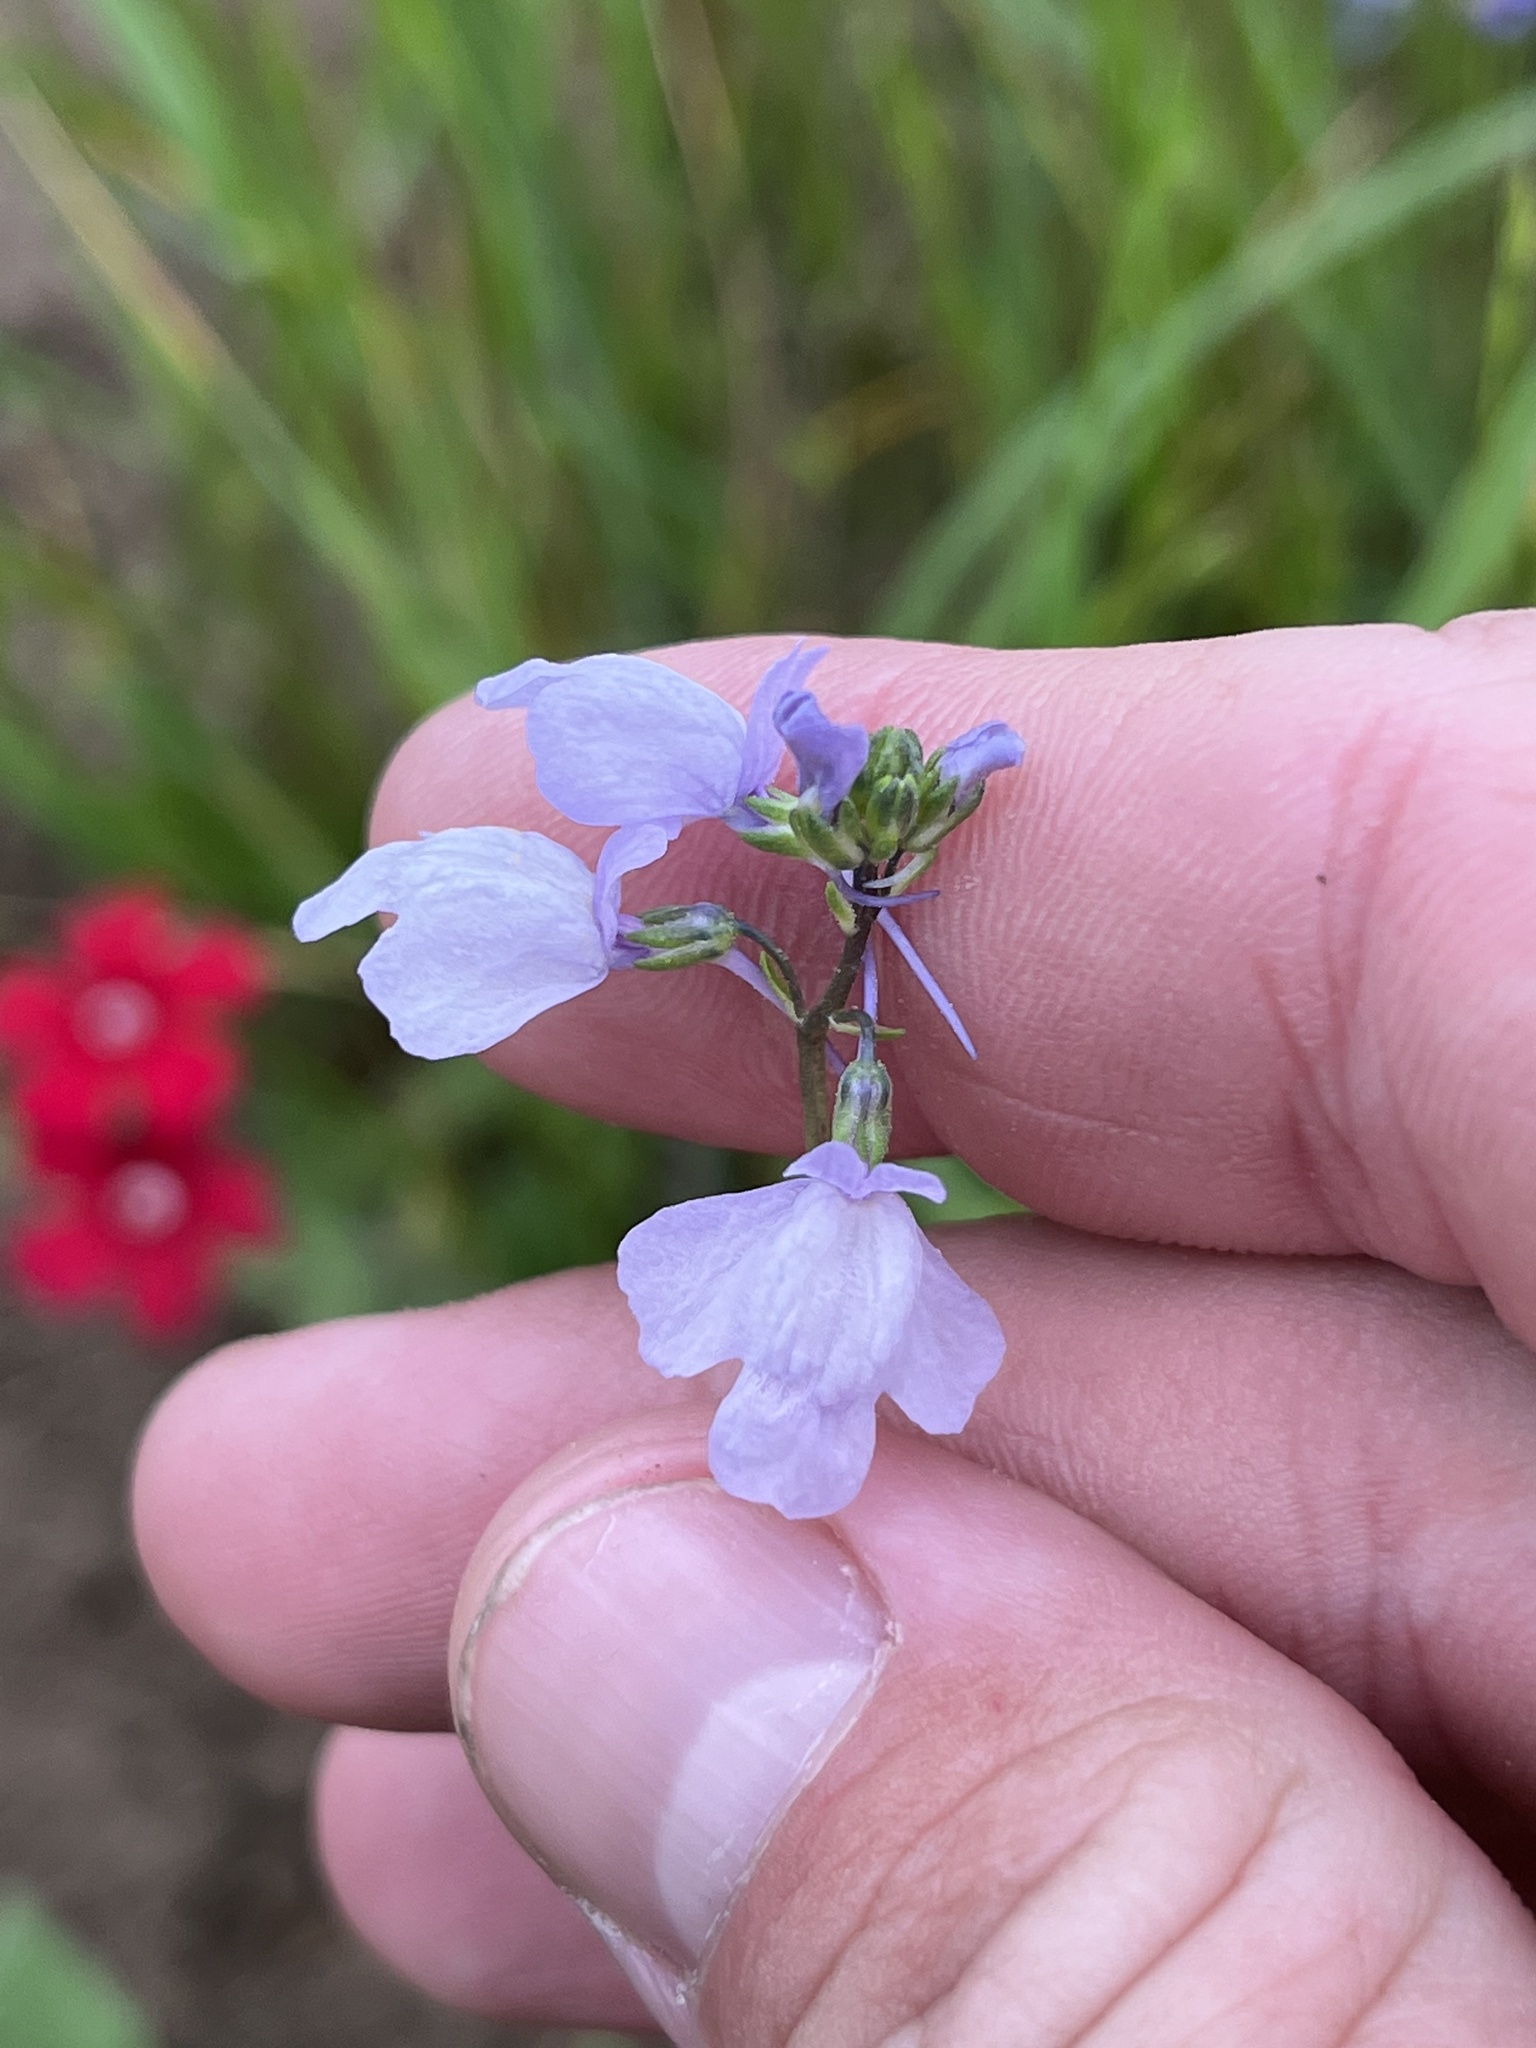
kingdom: Plantae
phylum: Tracheophyta
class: Magnoliopsida
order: Lamiales
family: Plantaginaceae
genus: Nuttallanthus
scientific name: Nuttallanthus texanus
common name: Texas toadflax
